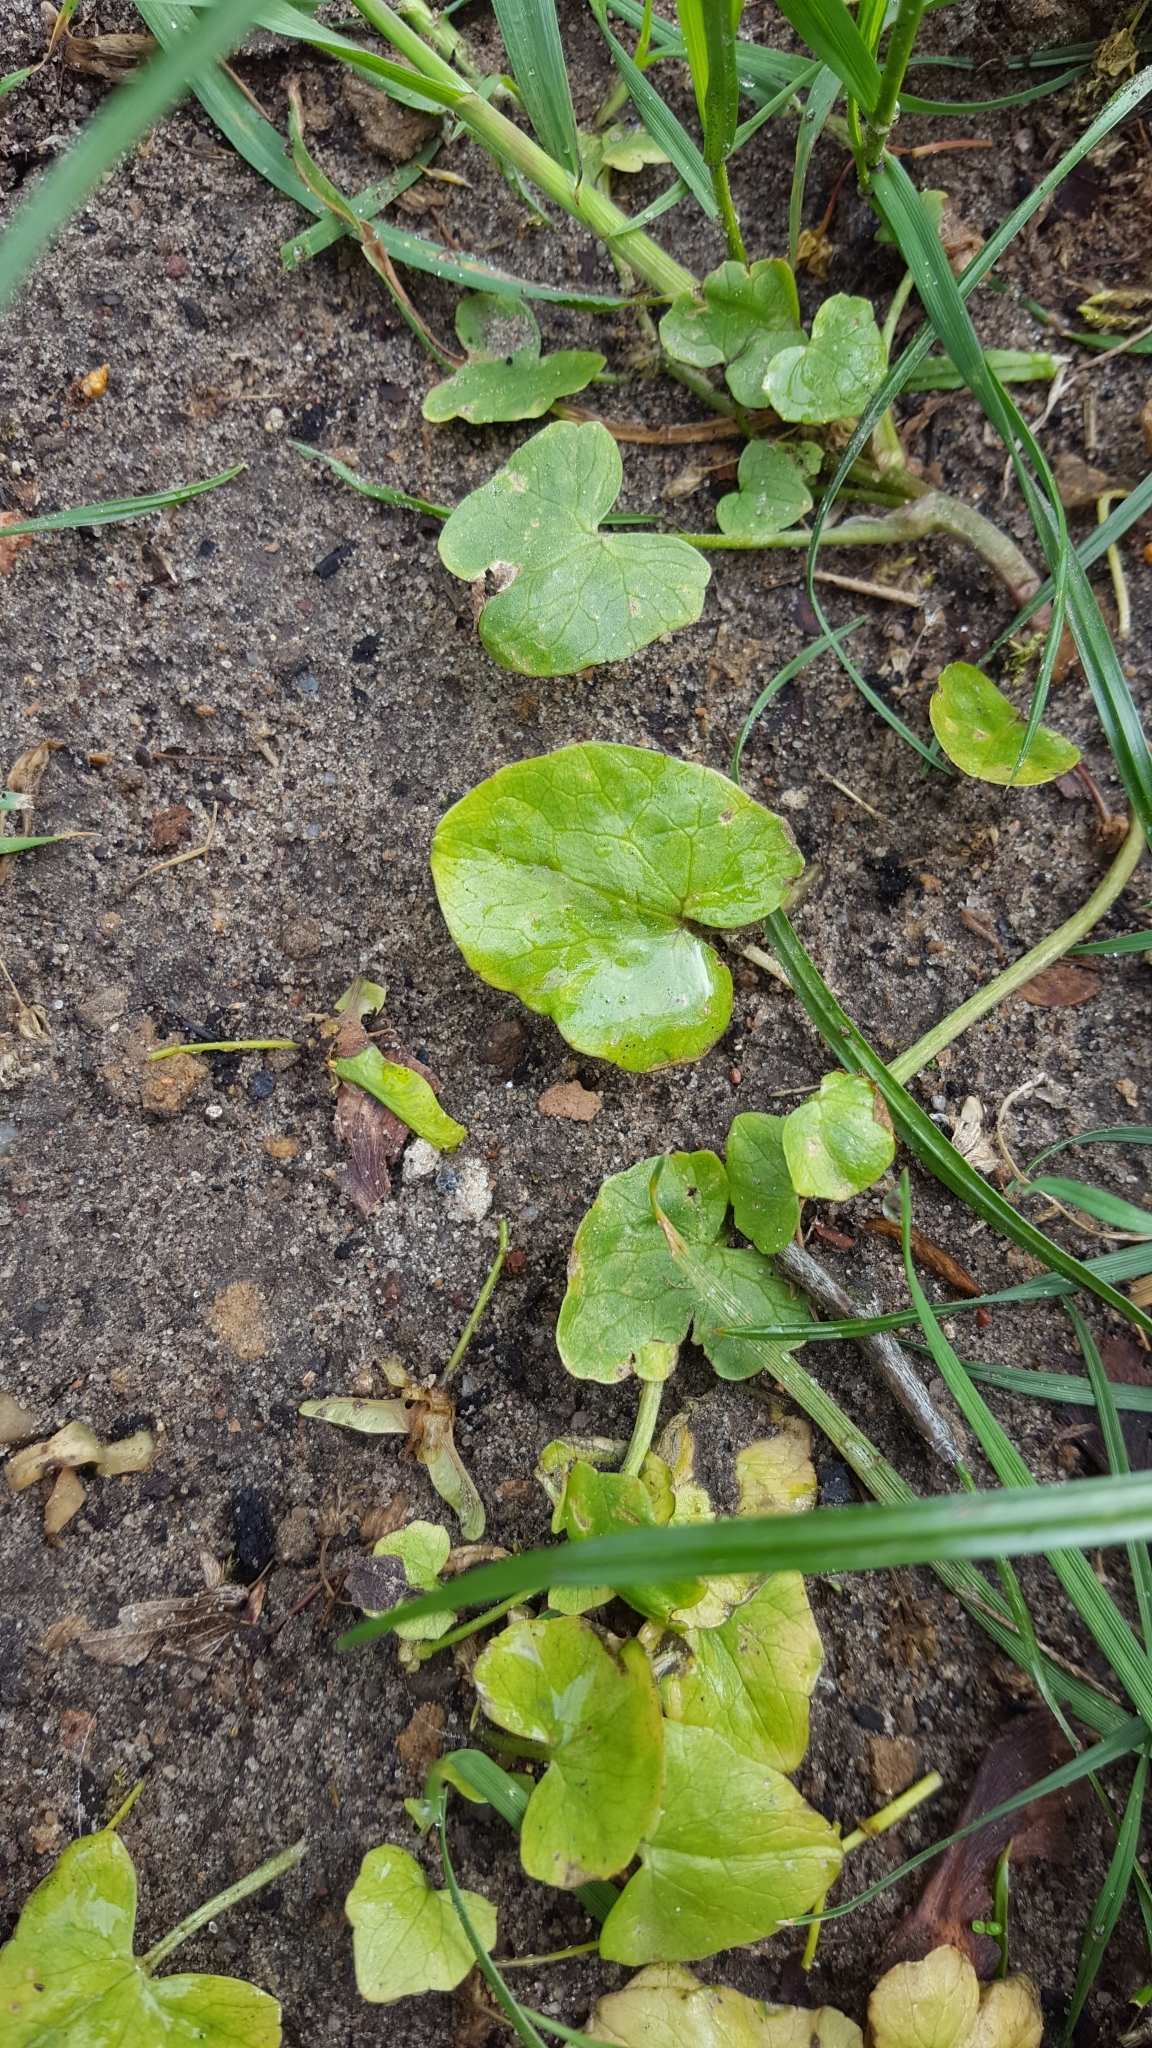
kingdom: Plantae
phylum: Tracheophyta
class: Magnoliopsida
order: Ranunculales
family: Ranunculaceae
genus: Ficaria
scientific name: Ficaria verna
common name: Lesser celandine
